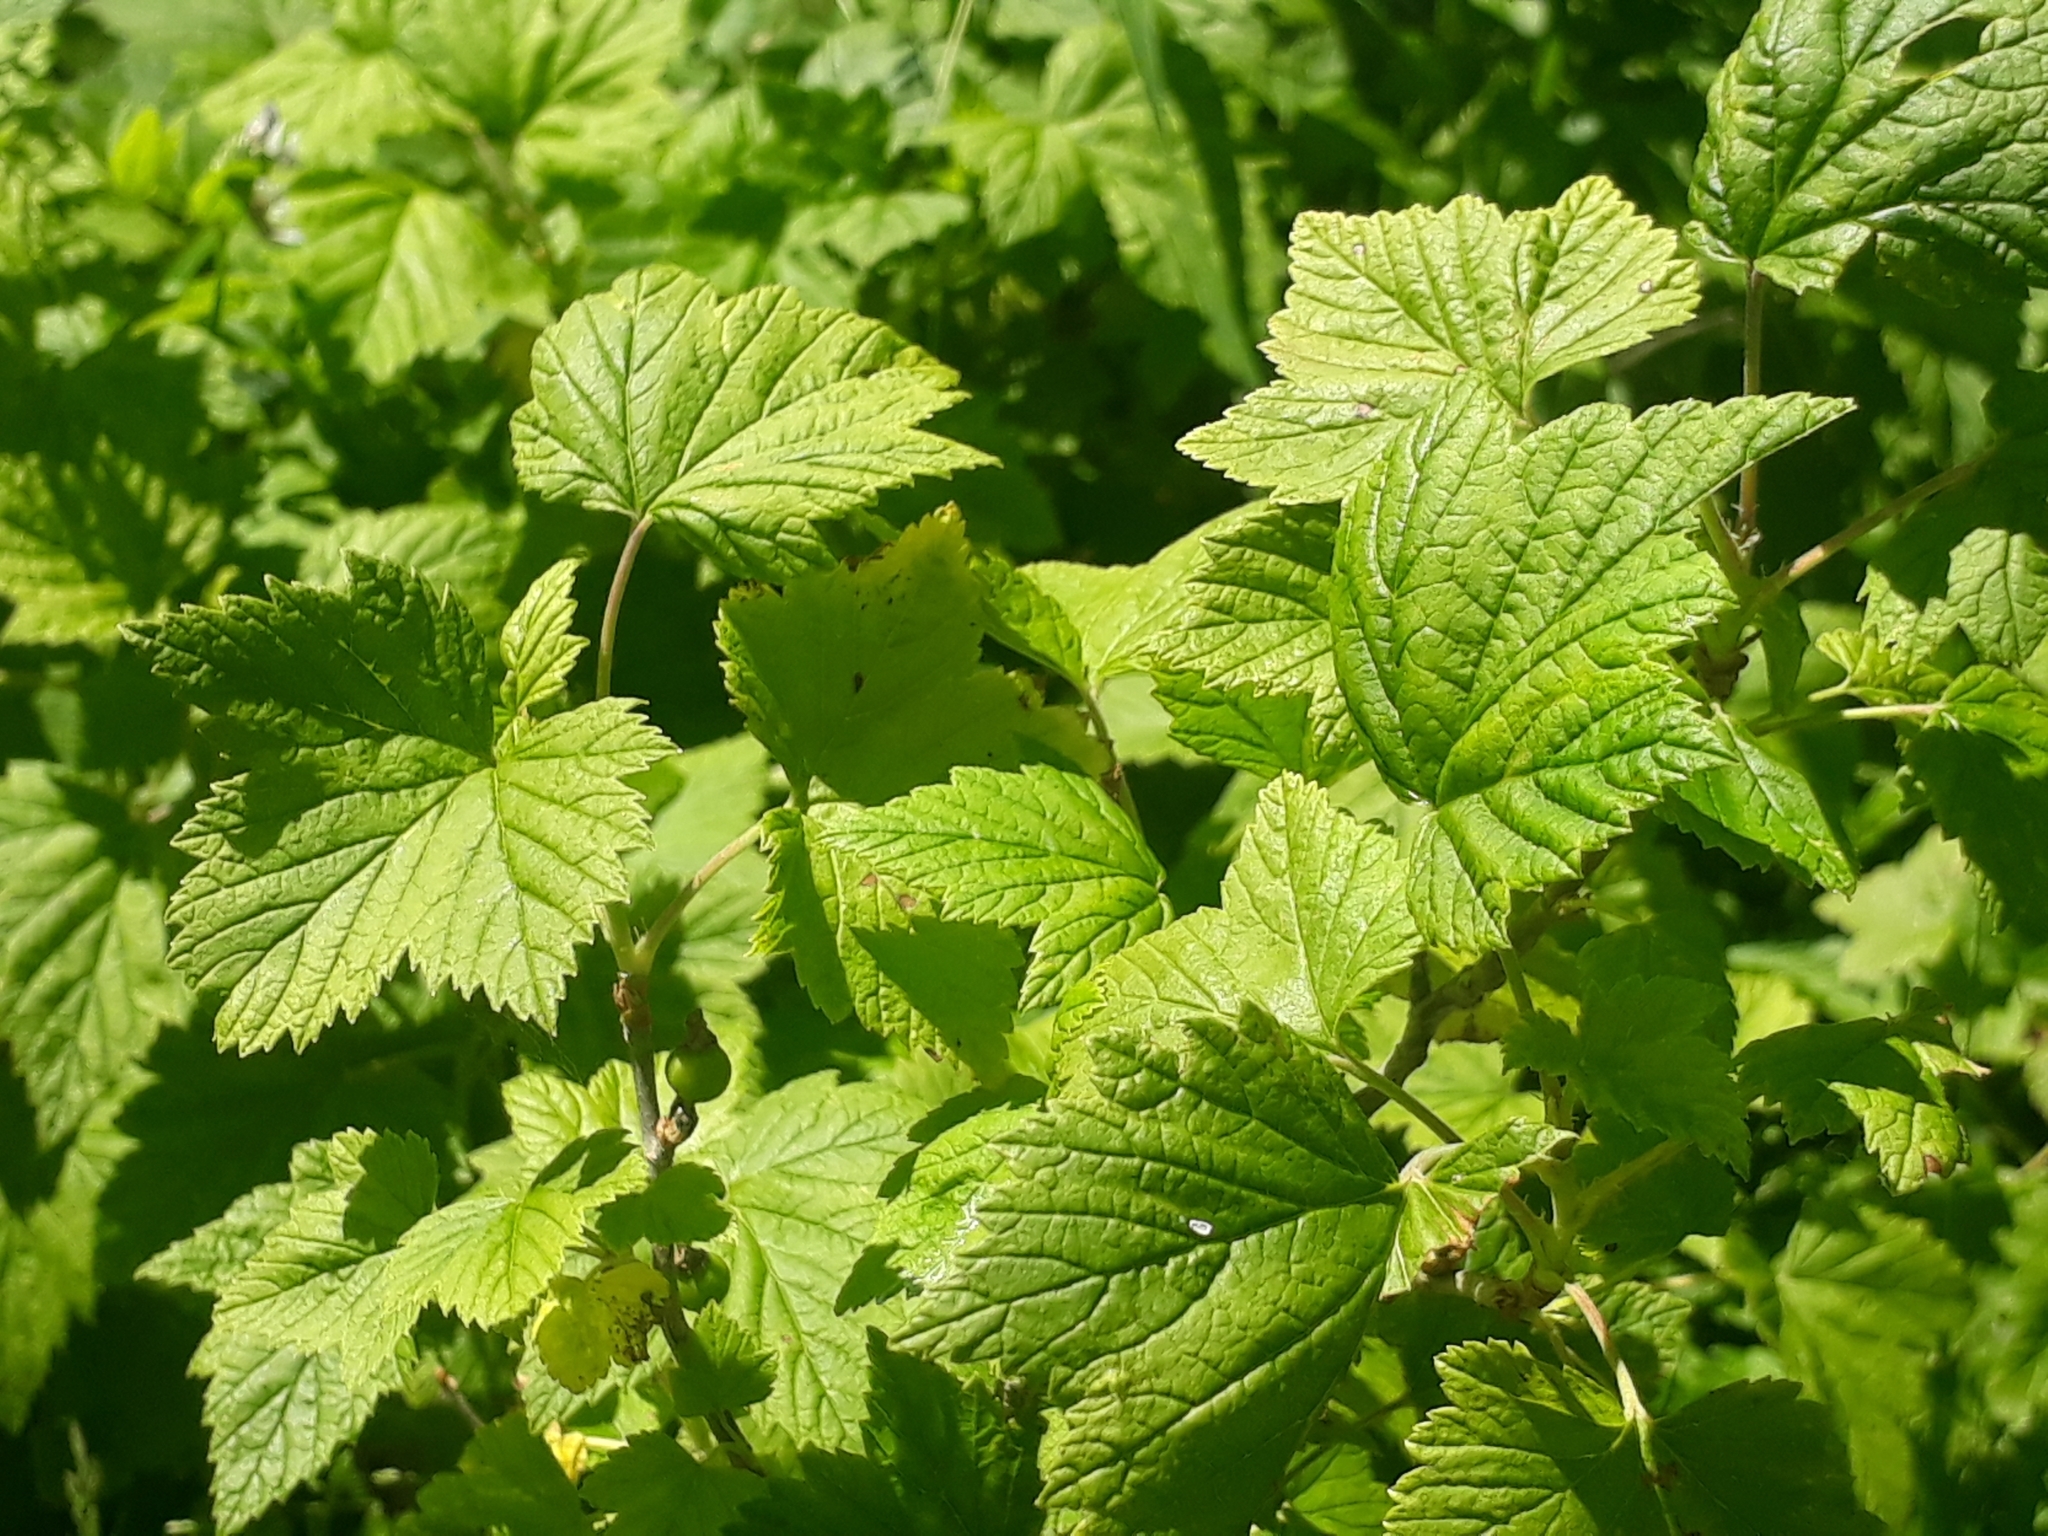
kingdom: Plantae
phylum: Tracheophyta
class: Magnoliopsida
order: Saxifragales
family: Grossulariaceae
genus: Ribes
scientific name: Ribes nigrum
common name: Black currant
